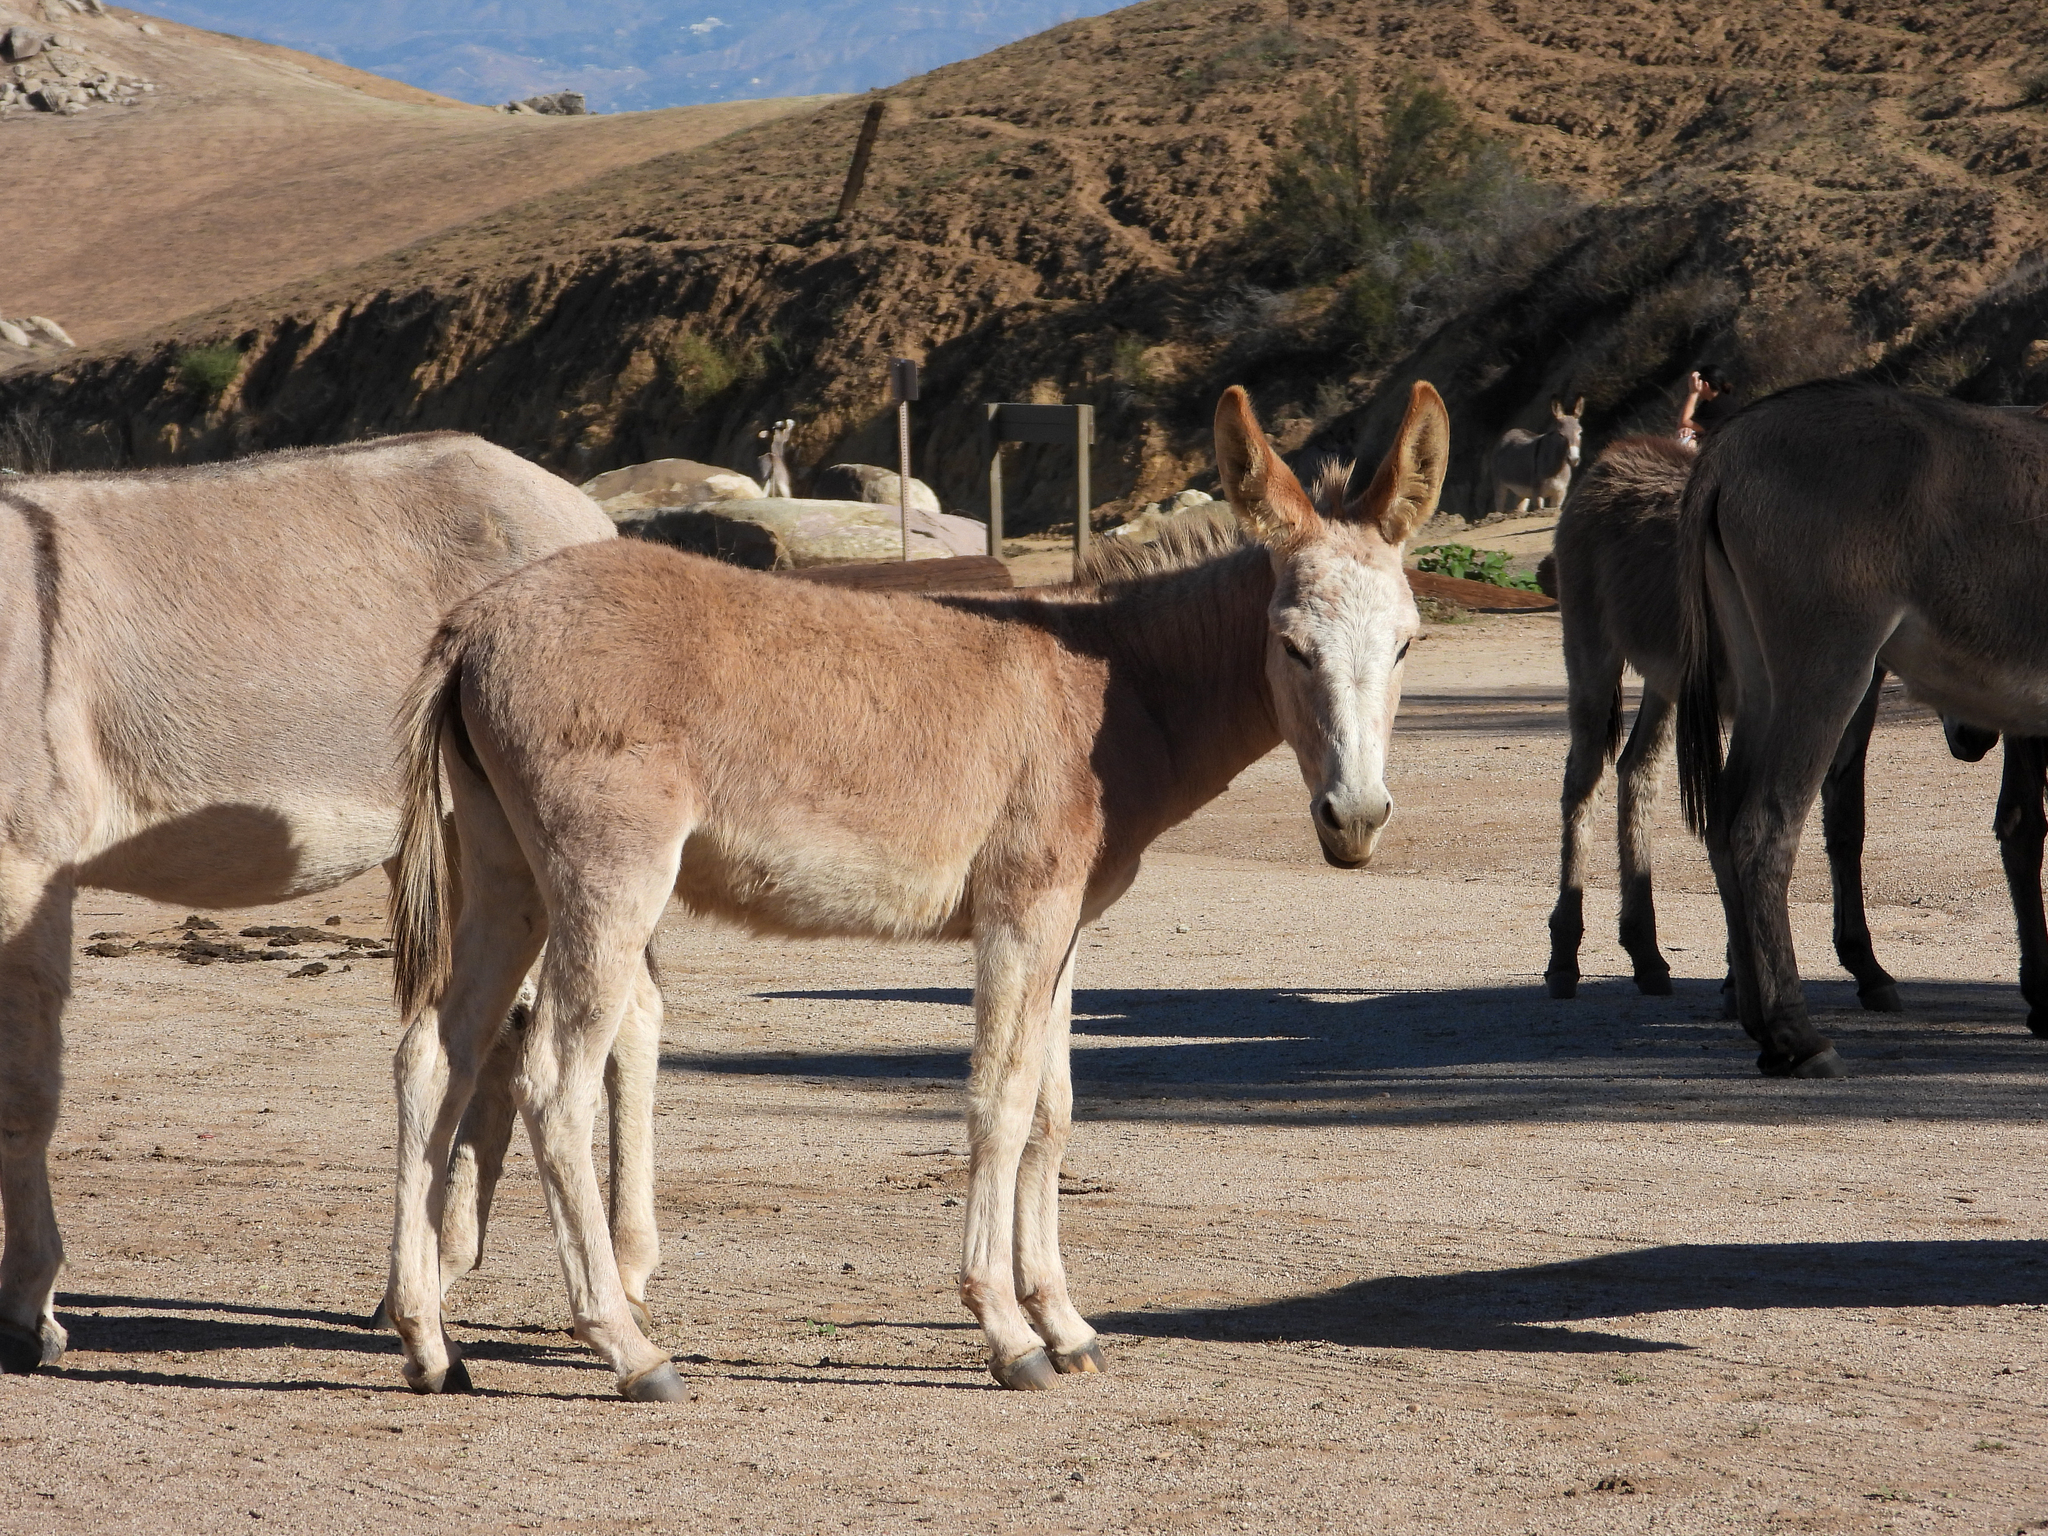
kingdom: Animalia
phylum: Chordata
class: Mammalia
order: Perissodactyla
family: Equidae
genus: Equus
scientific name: Equus asinus
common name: Ass
